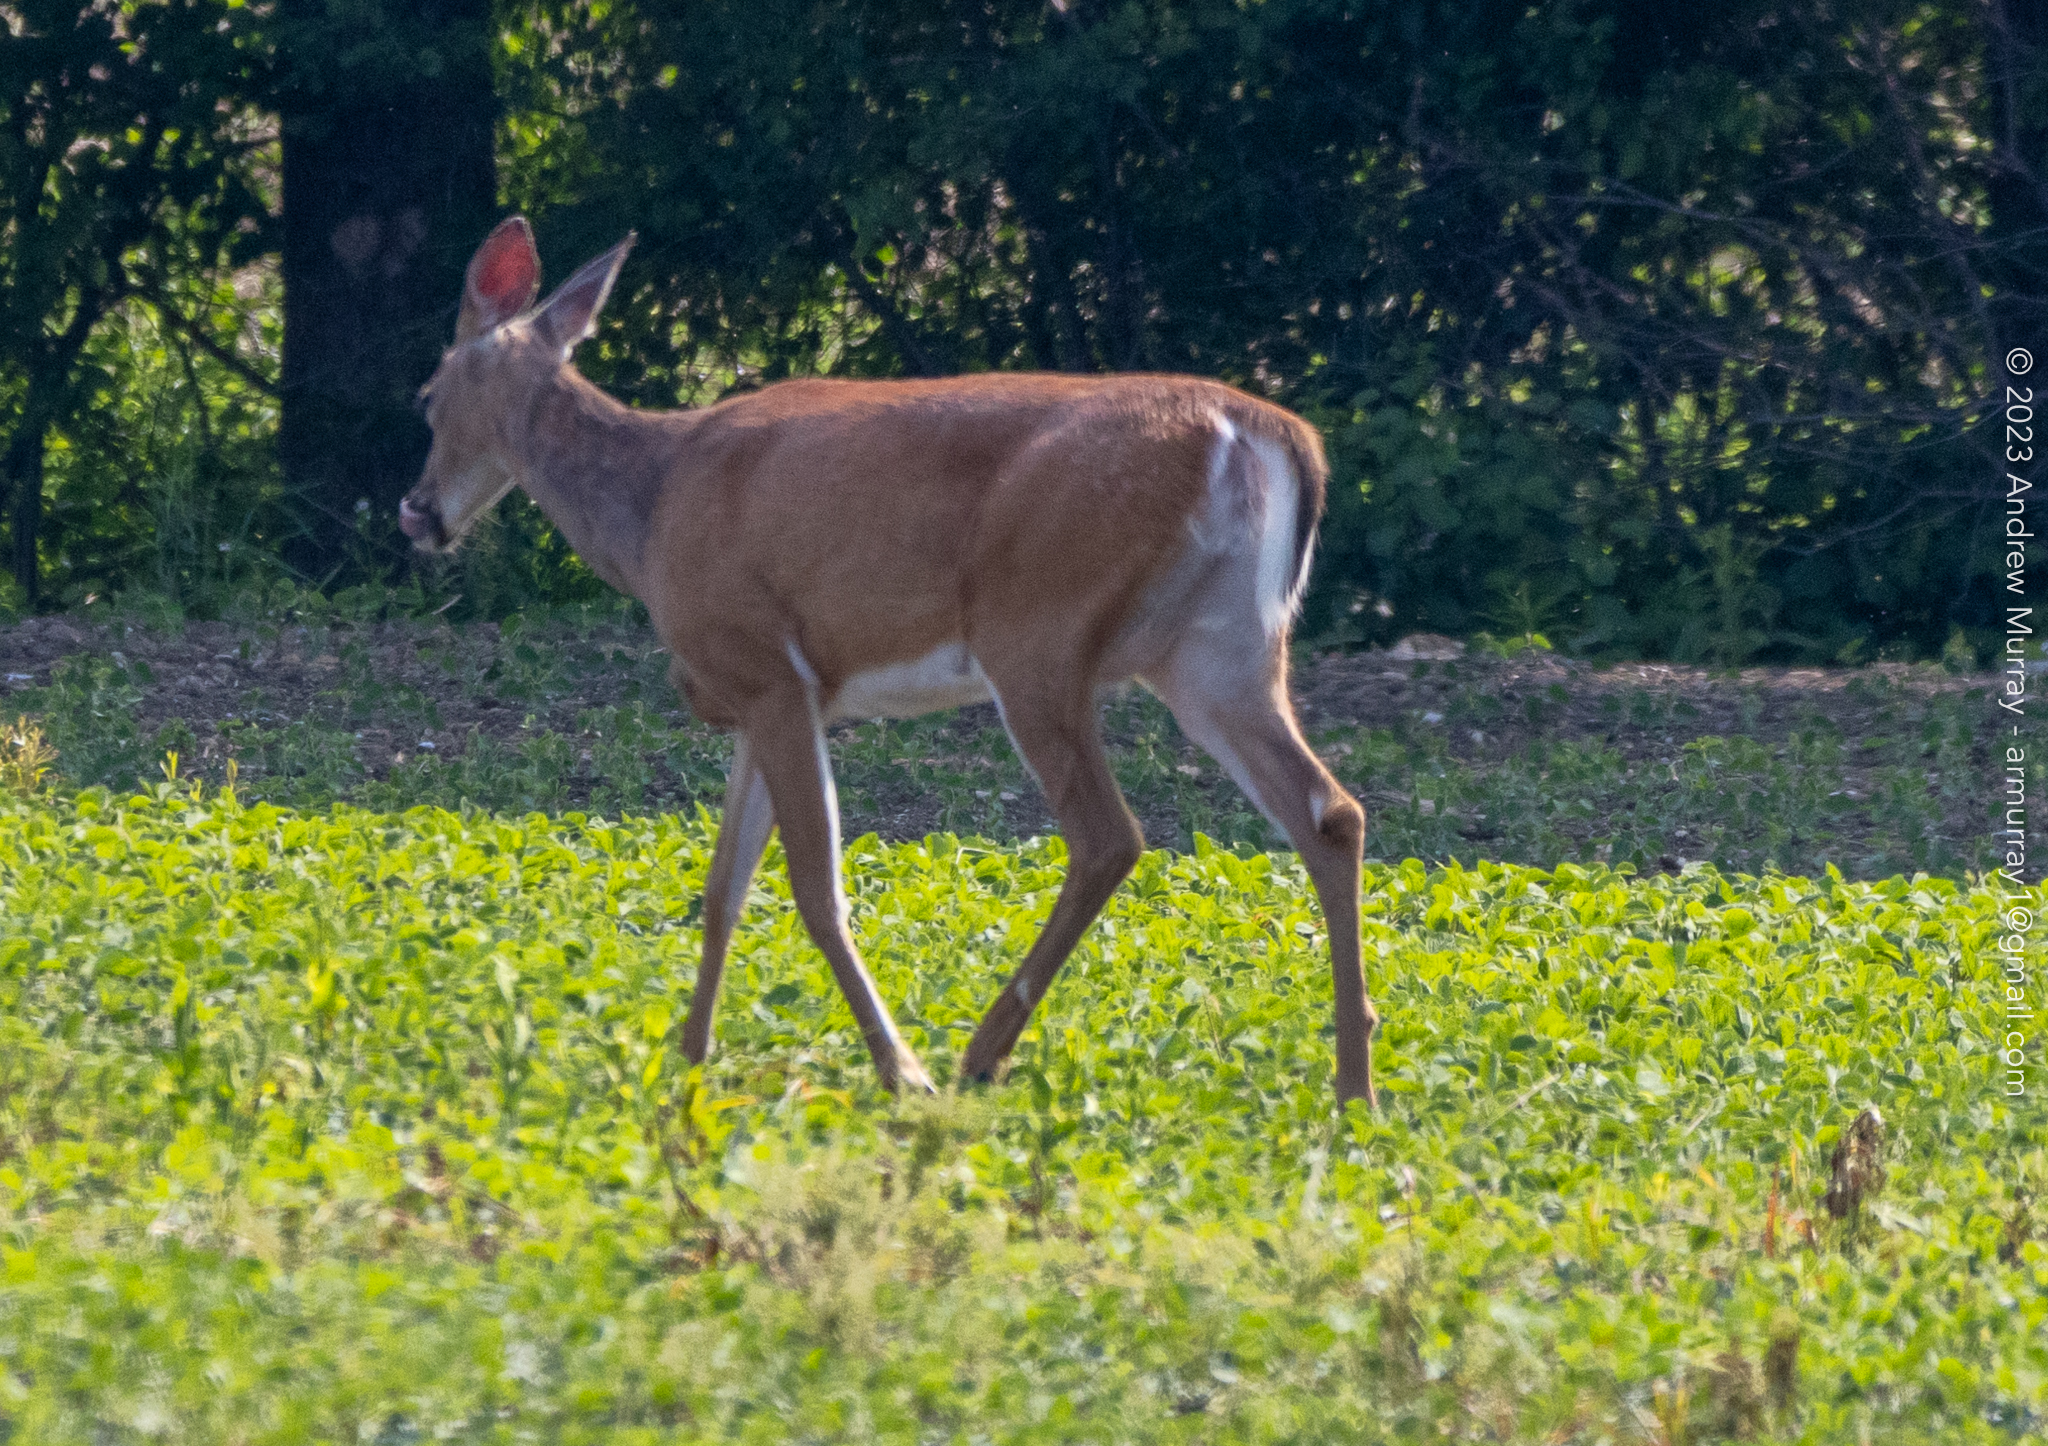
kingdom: Animalia
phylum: Chordata
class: Mammalia
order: Artiodactyla
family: Cervidae
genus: Odocoileus
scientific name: Odocoileus virginianus
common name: White-tailed deer
